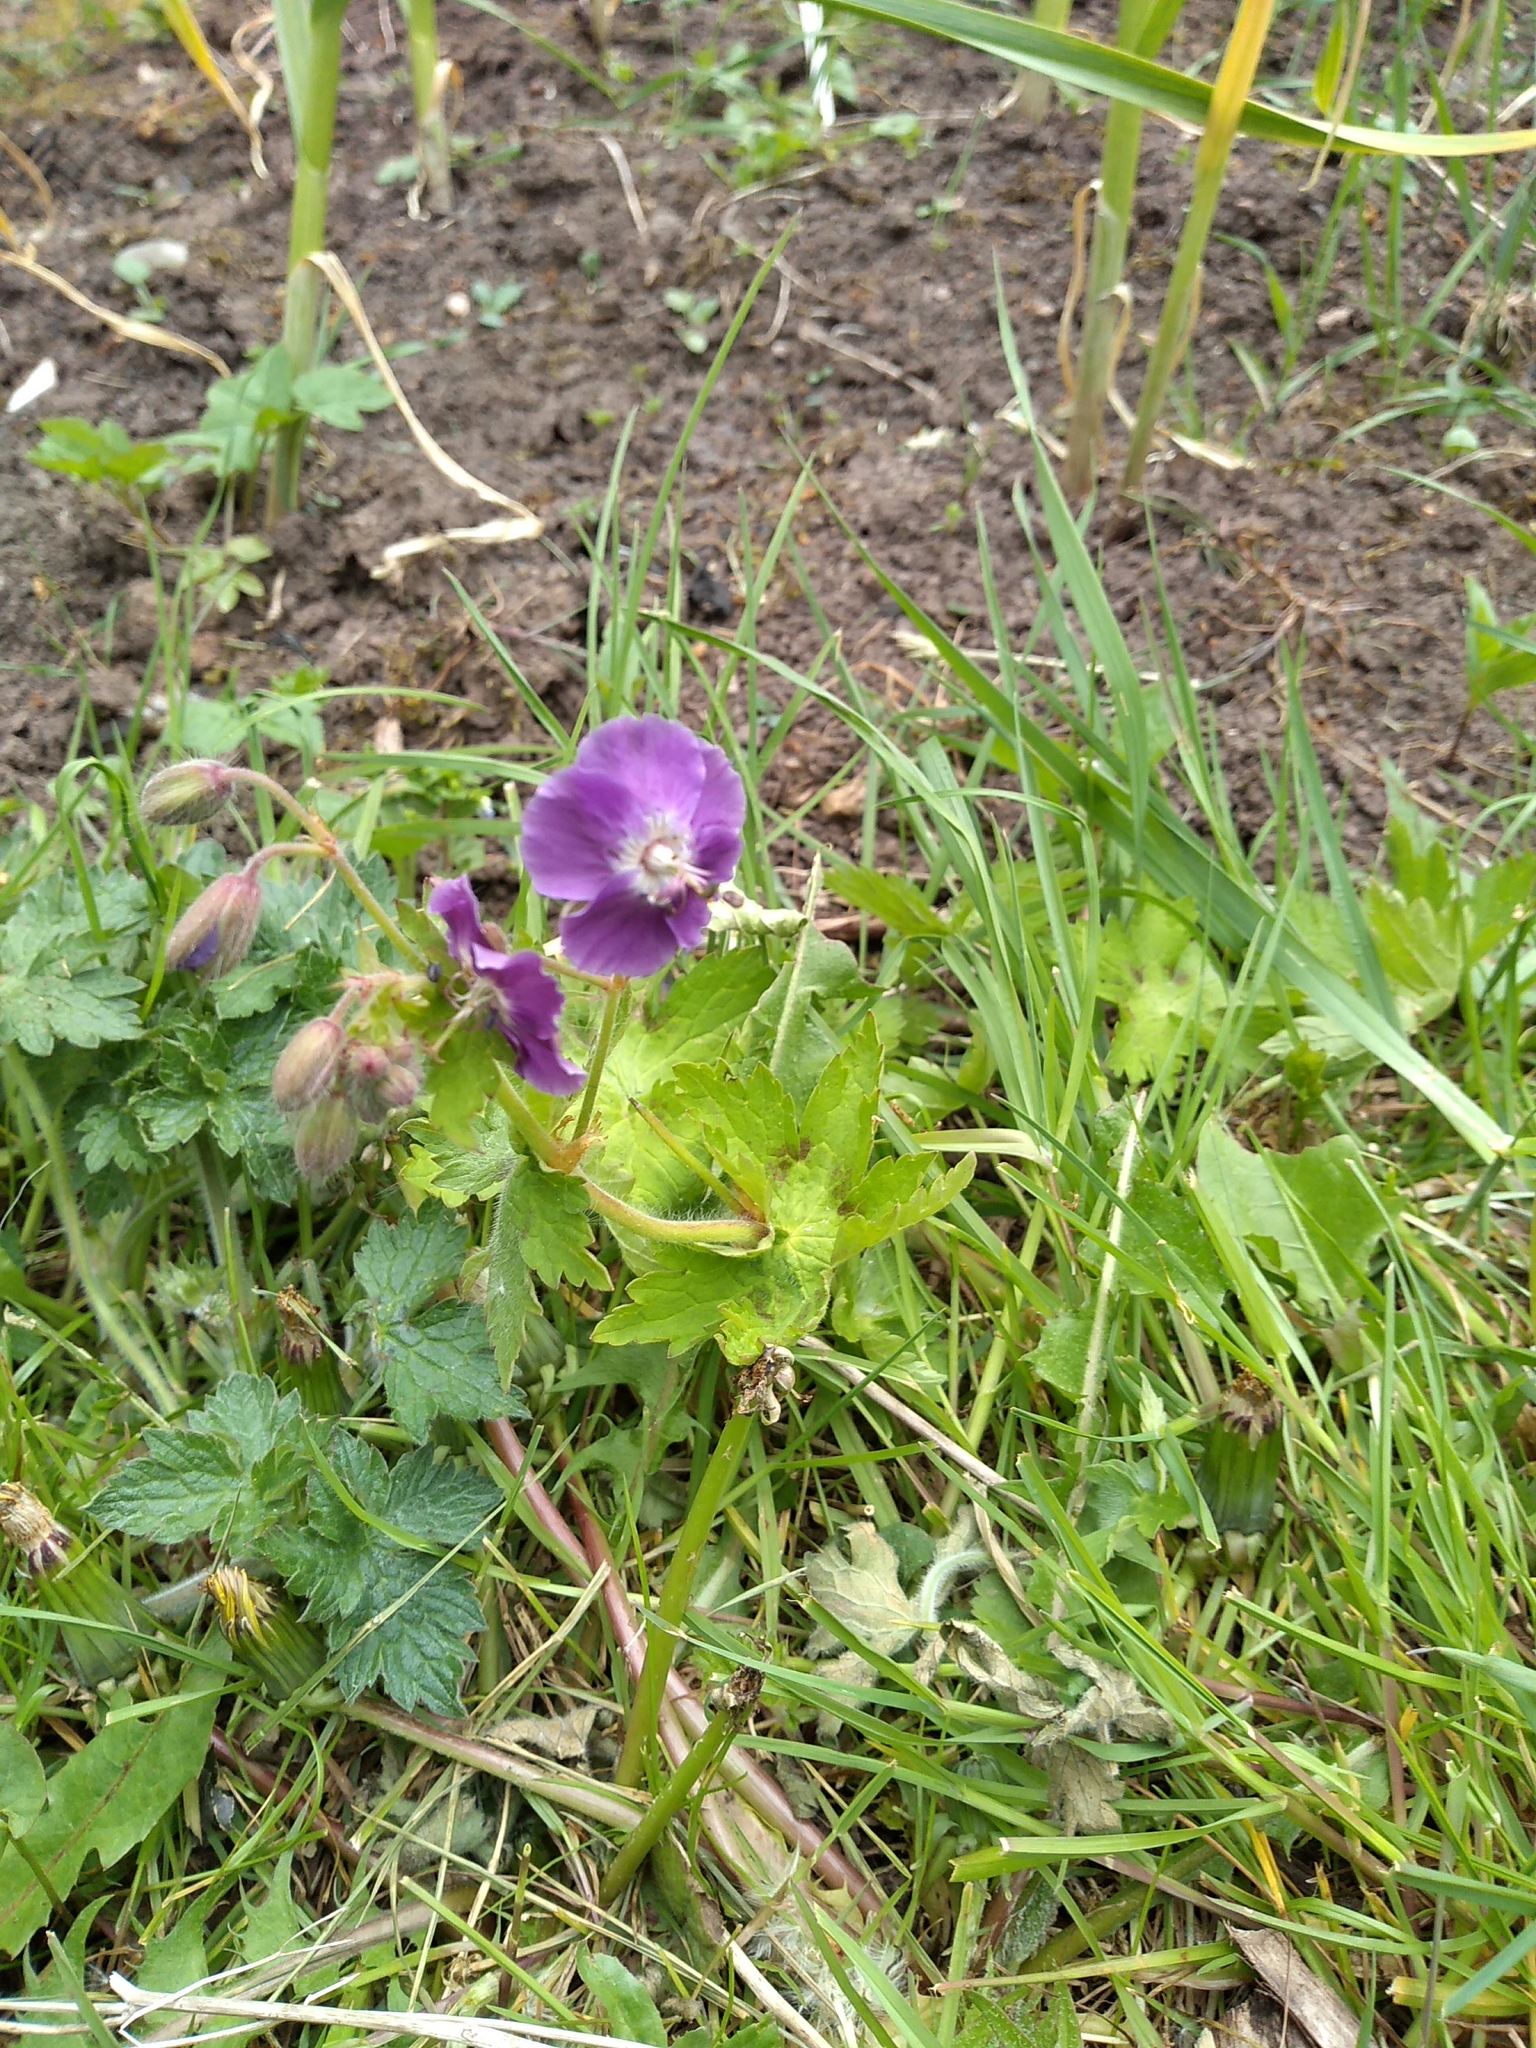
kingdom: Plantae
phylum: Tracheophyta
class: Magnoliopsida
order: Geraniales
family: Geraniaceae
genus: Geranium
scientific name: Geranium phaeum
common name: Dusky crane's-bill
